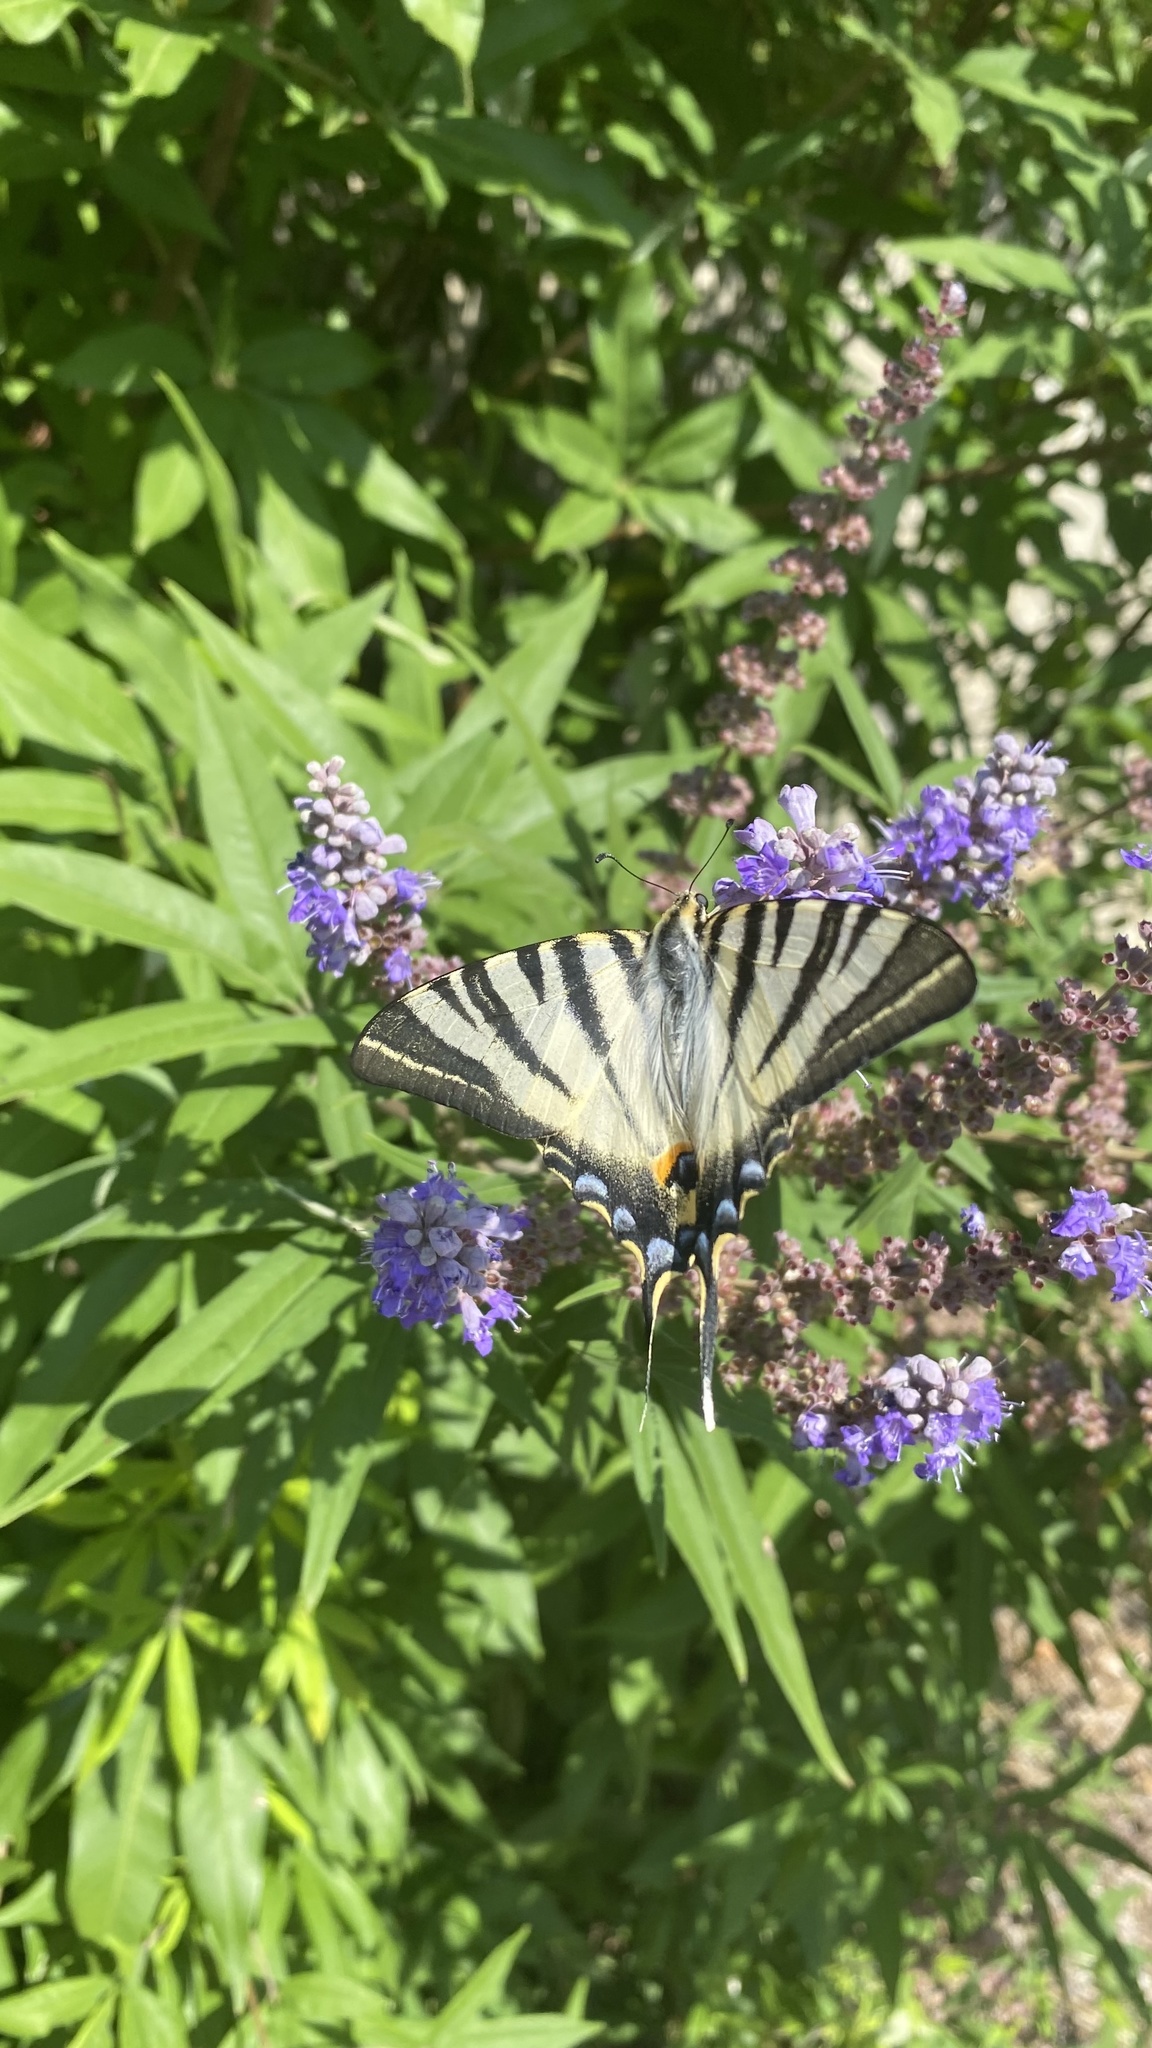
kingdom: Animalia
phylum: Arthropoda
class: Insecta
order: Lepidoptera
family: Papilionidae
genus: Iphiclides
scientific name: Iphiclides podalirius
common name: Scarce swallowtail
